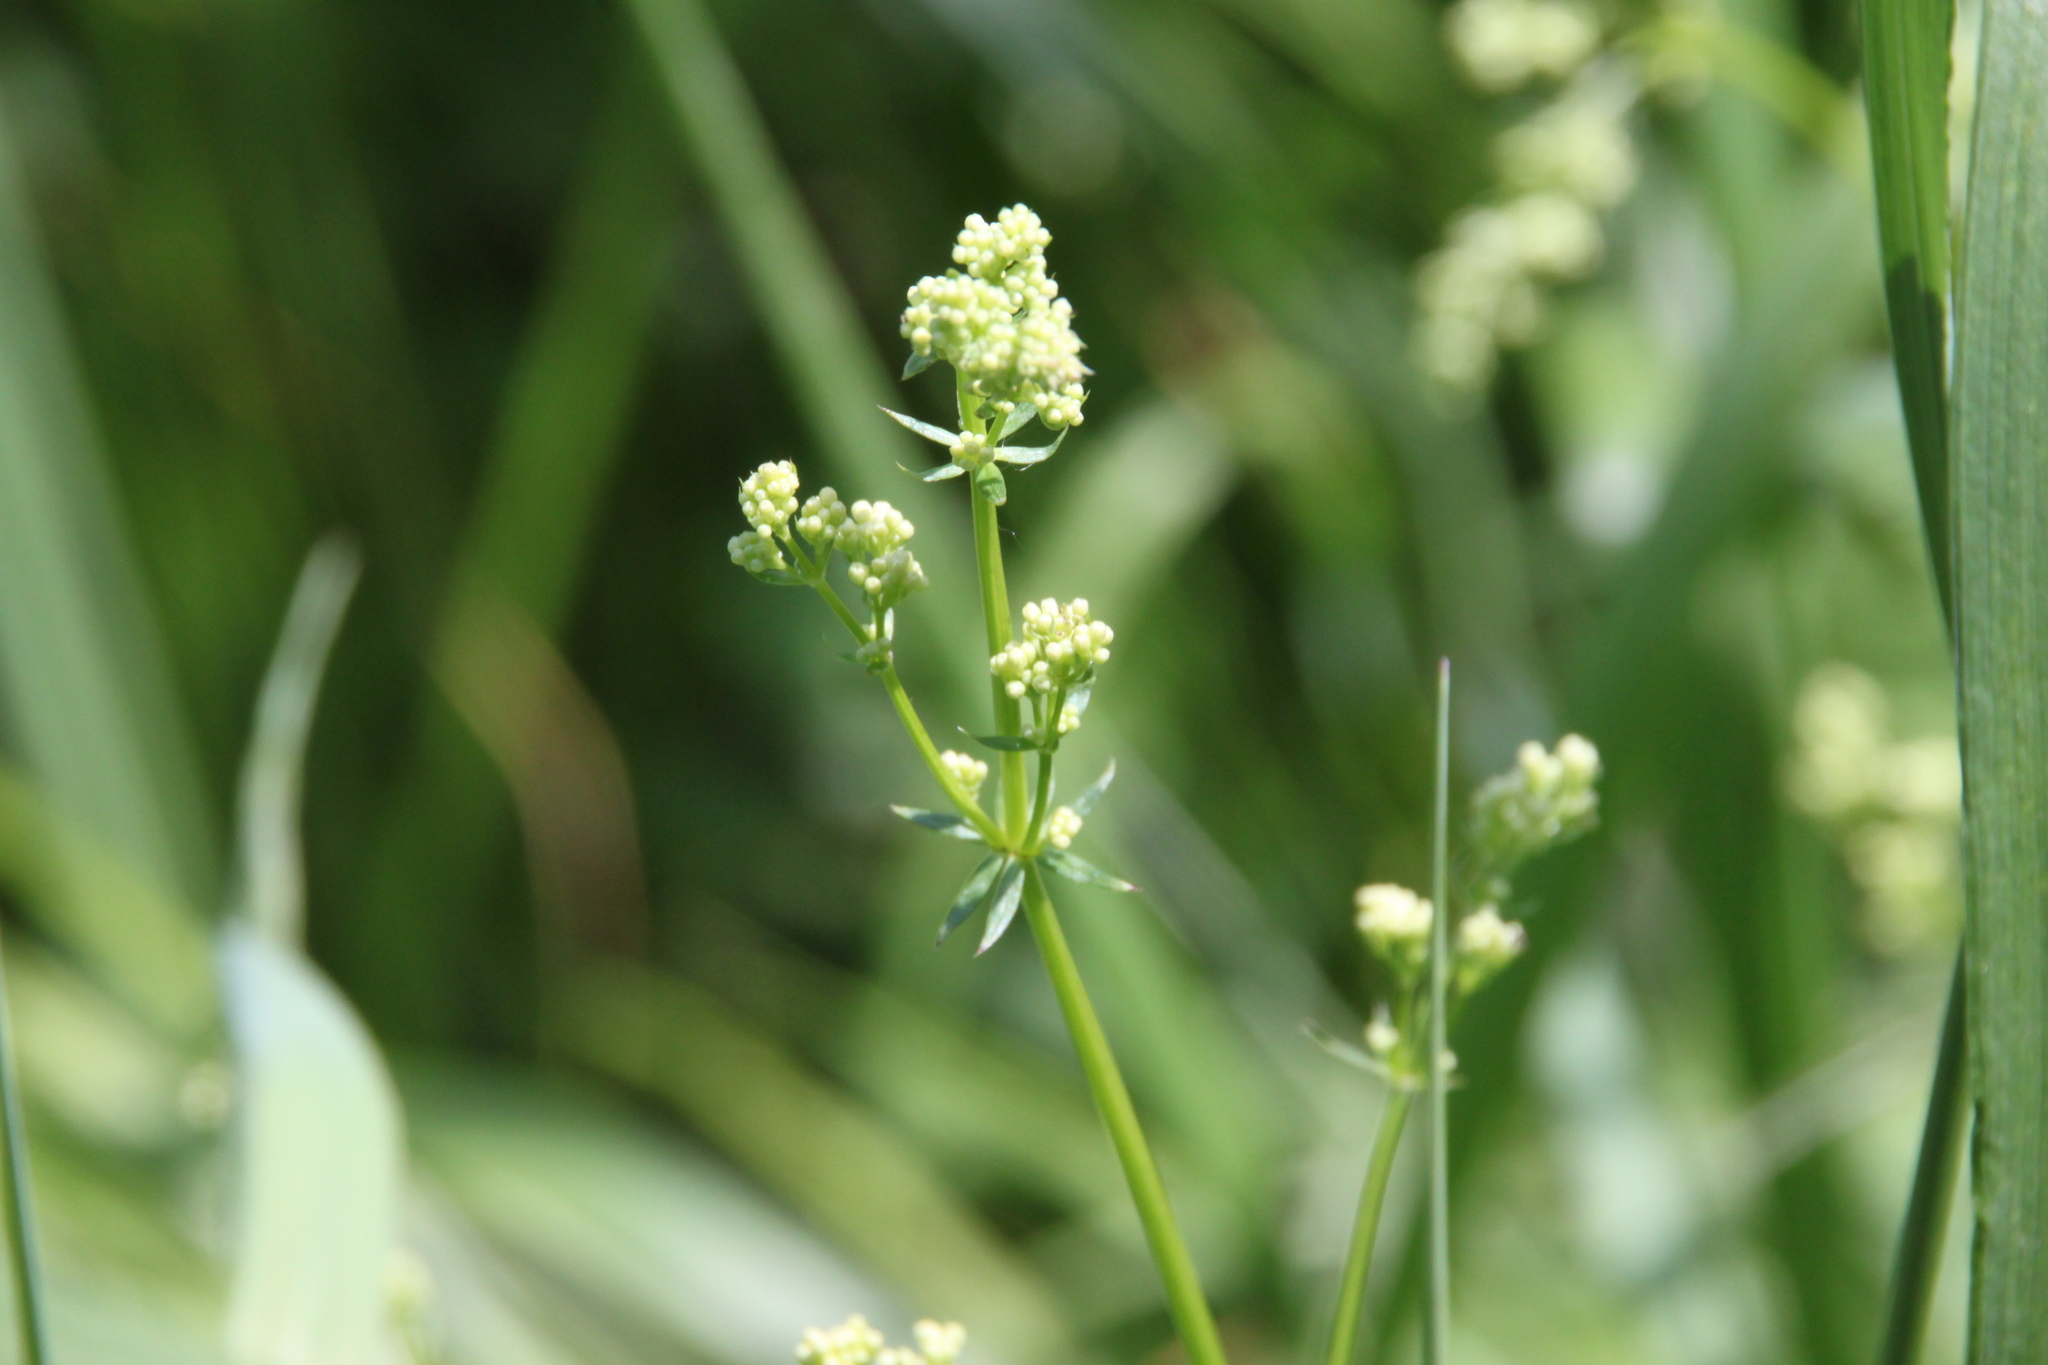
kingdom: Plantae
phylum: Tracheophyta
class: Magnoliopsida
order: Gentianales
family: Rubiaceae
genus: Galium
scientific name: Galium mollugo
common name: Hedge bedstraw
